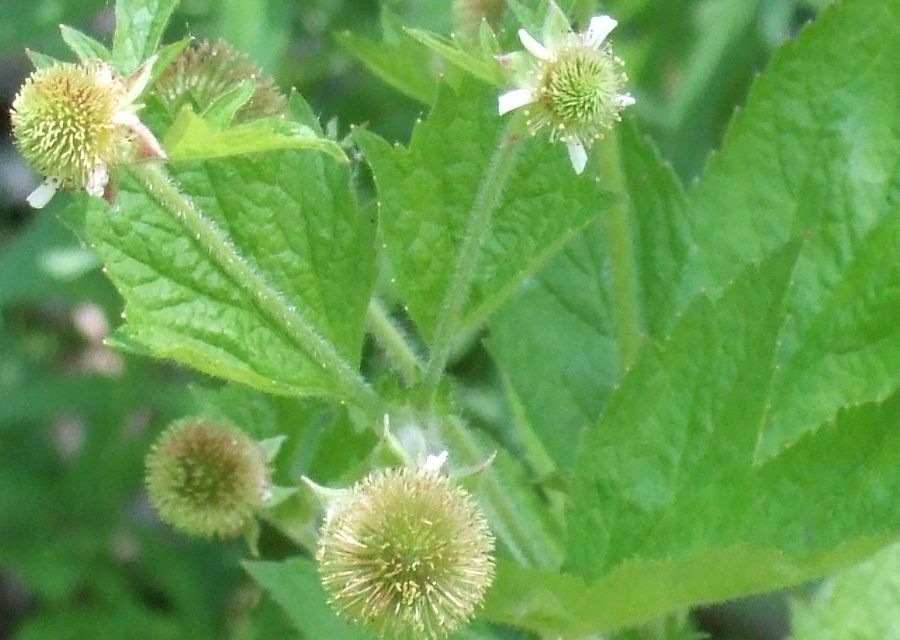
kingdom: Plantae
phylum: Tracheophyta
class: Magnoliopsida
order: Rosales
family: Rosaceae
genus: Geum
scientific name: Geum laciniatum
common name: Rough avens
